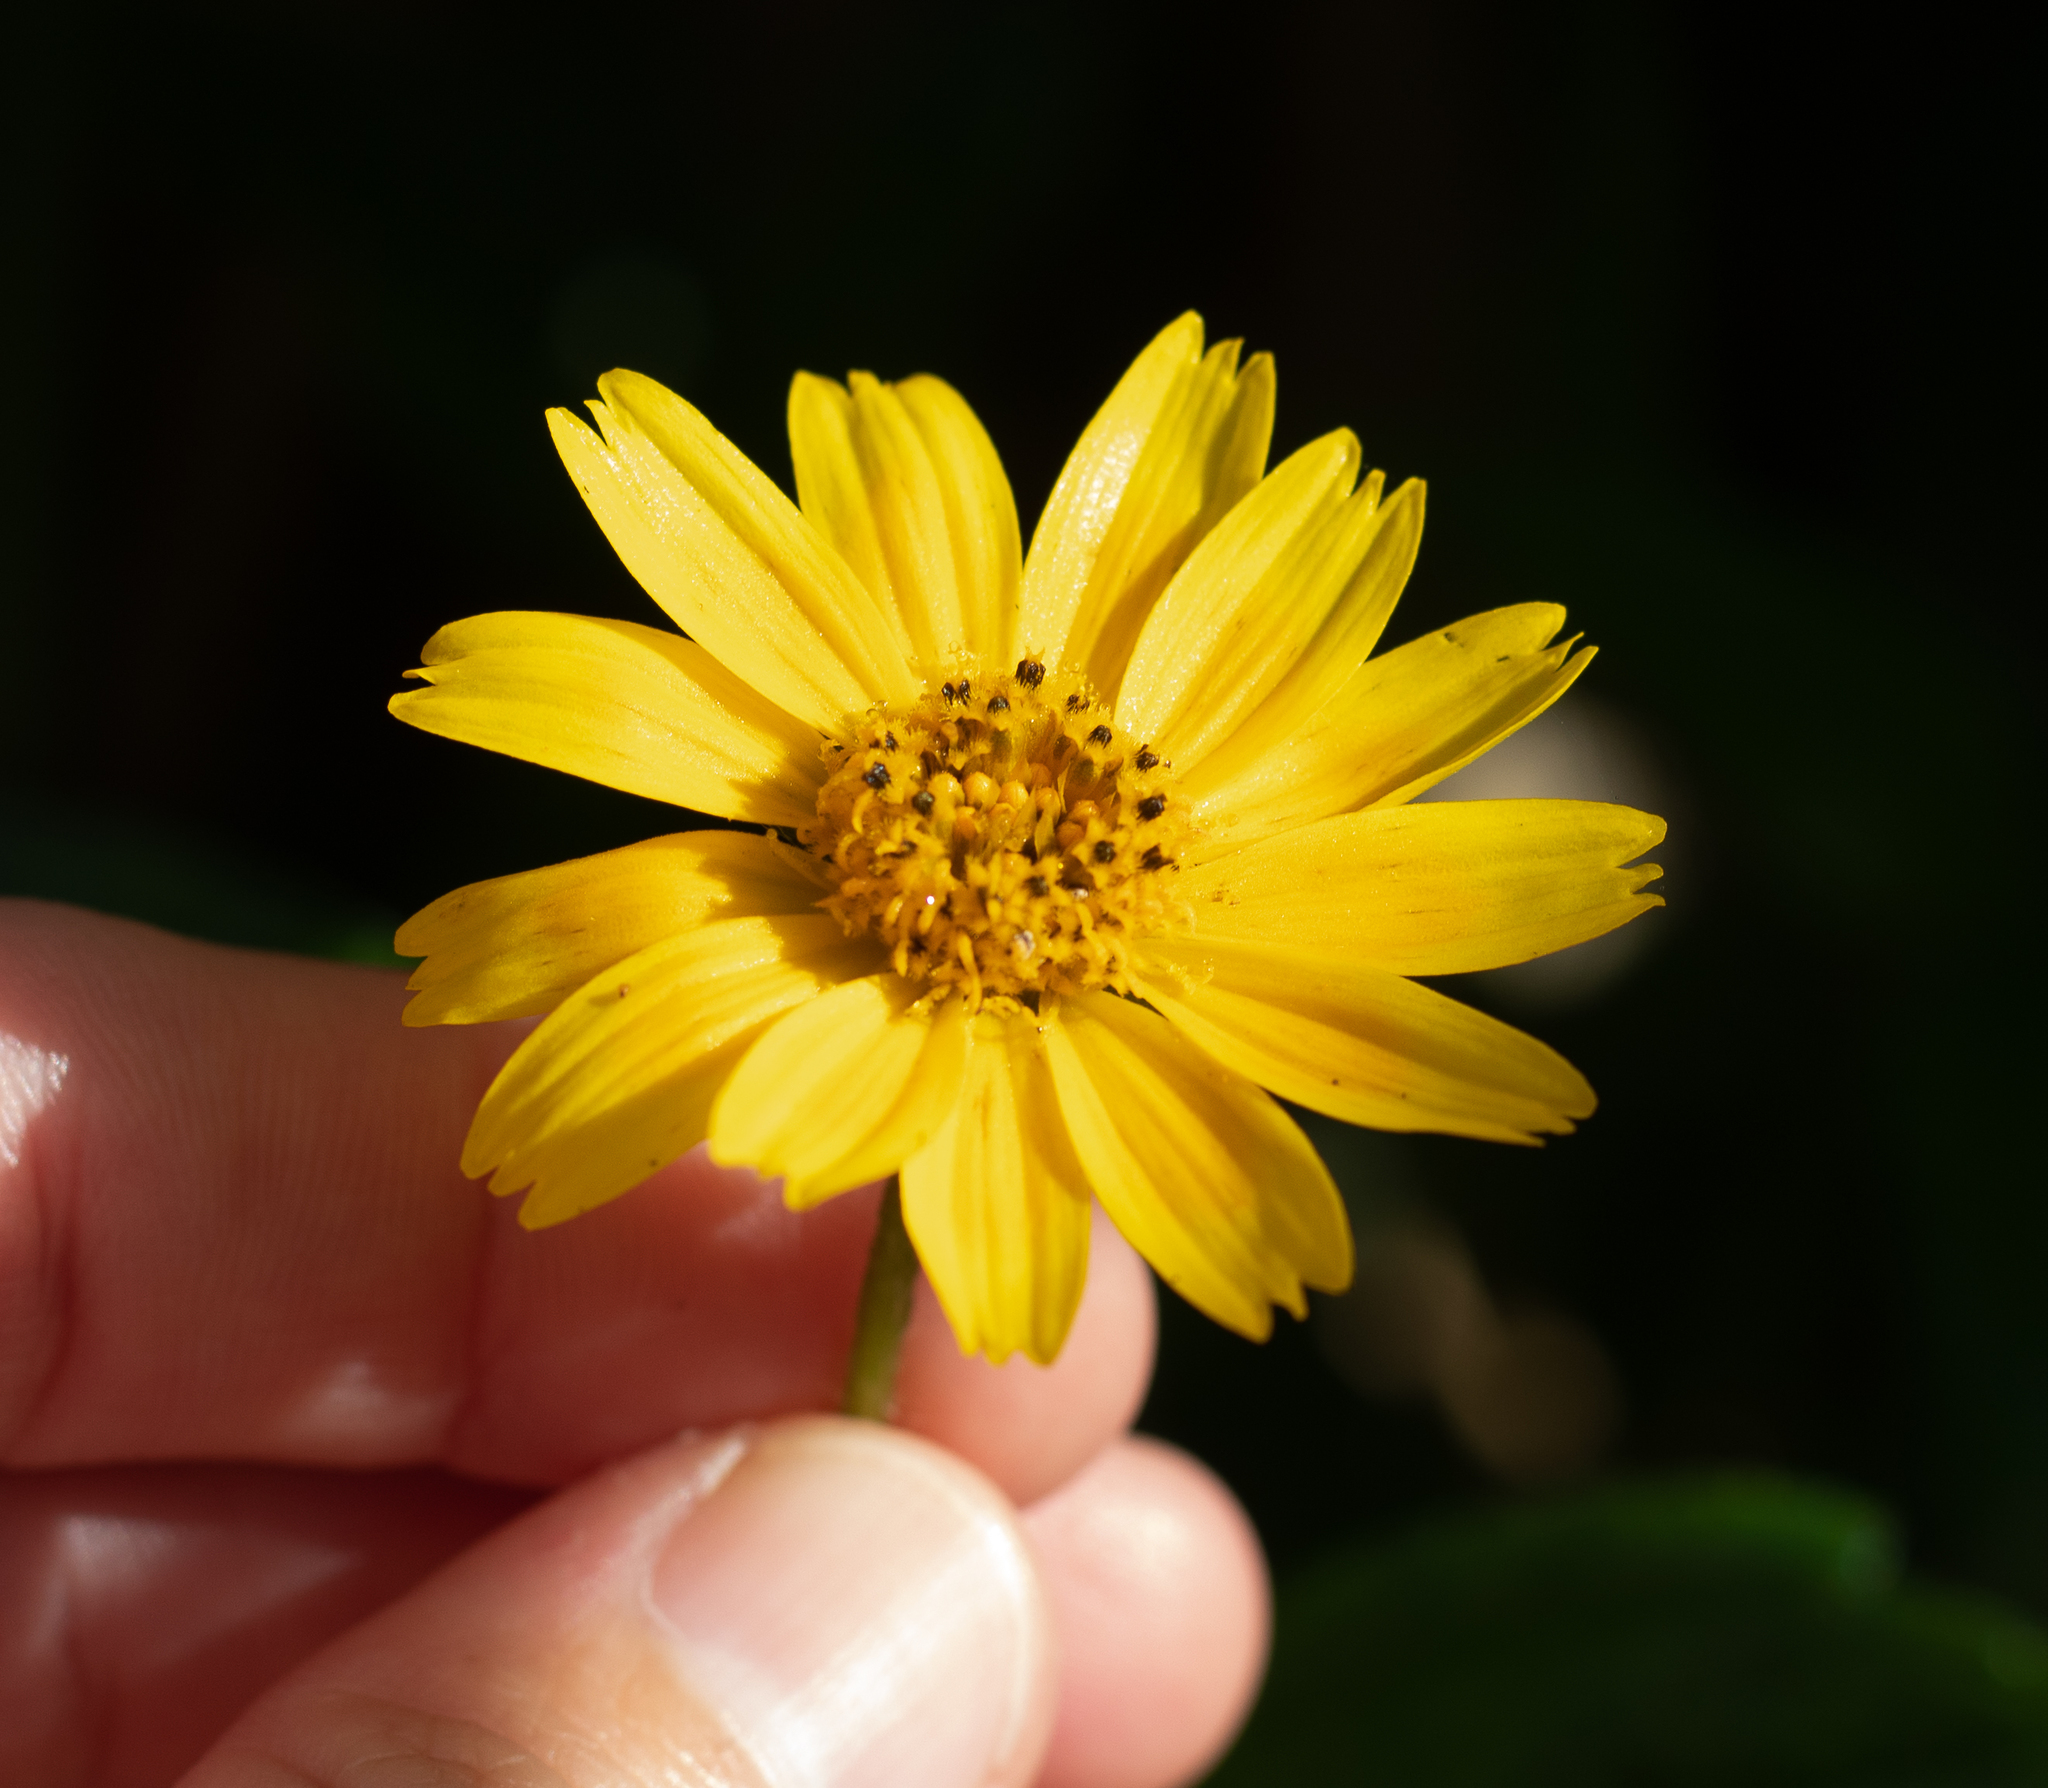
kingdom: Plantae
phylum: Tracheophyta
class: Magnoliopsida
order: Asterales
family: Asteraceae
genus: Sphagneticola
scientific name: Sphagneticola trilobata
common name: Bay biscayne creeping-oxeye
